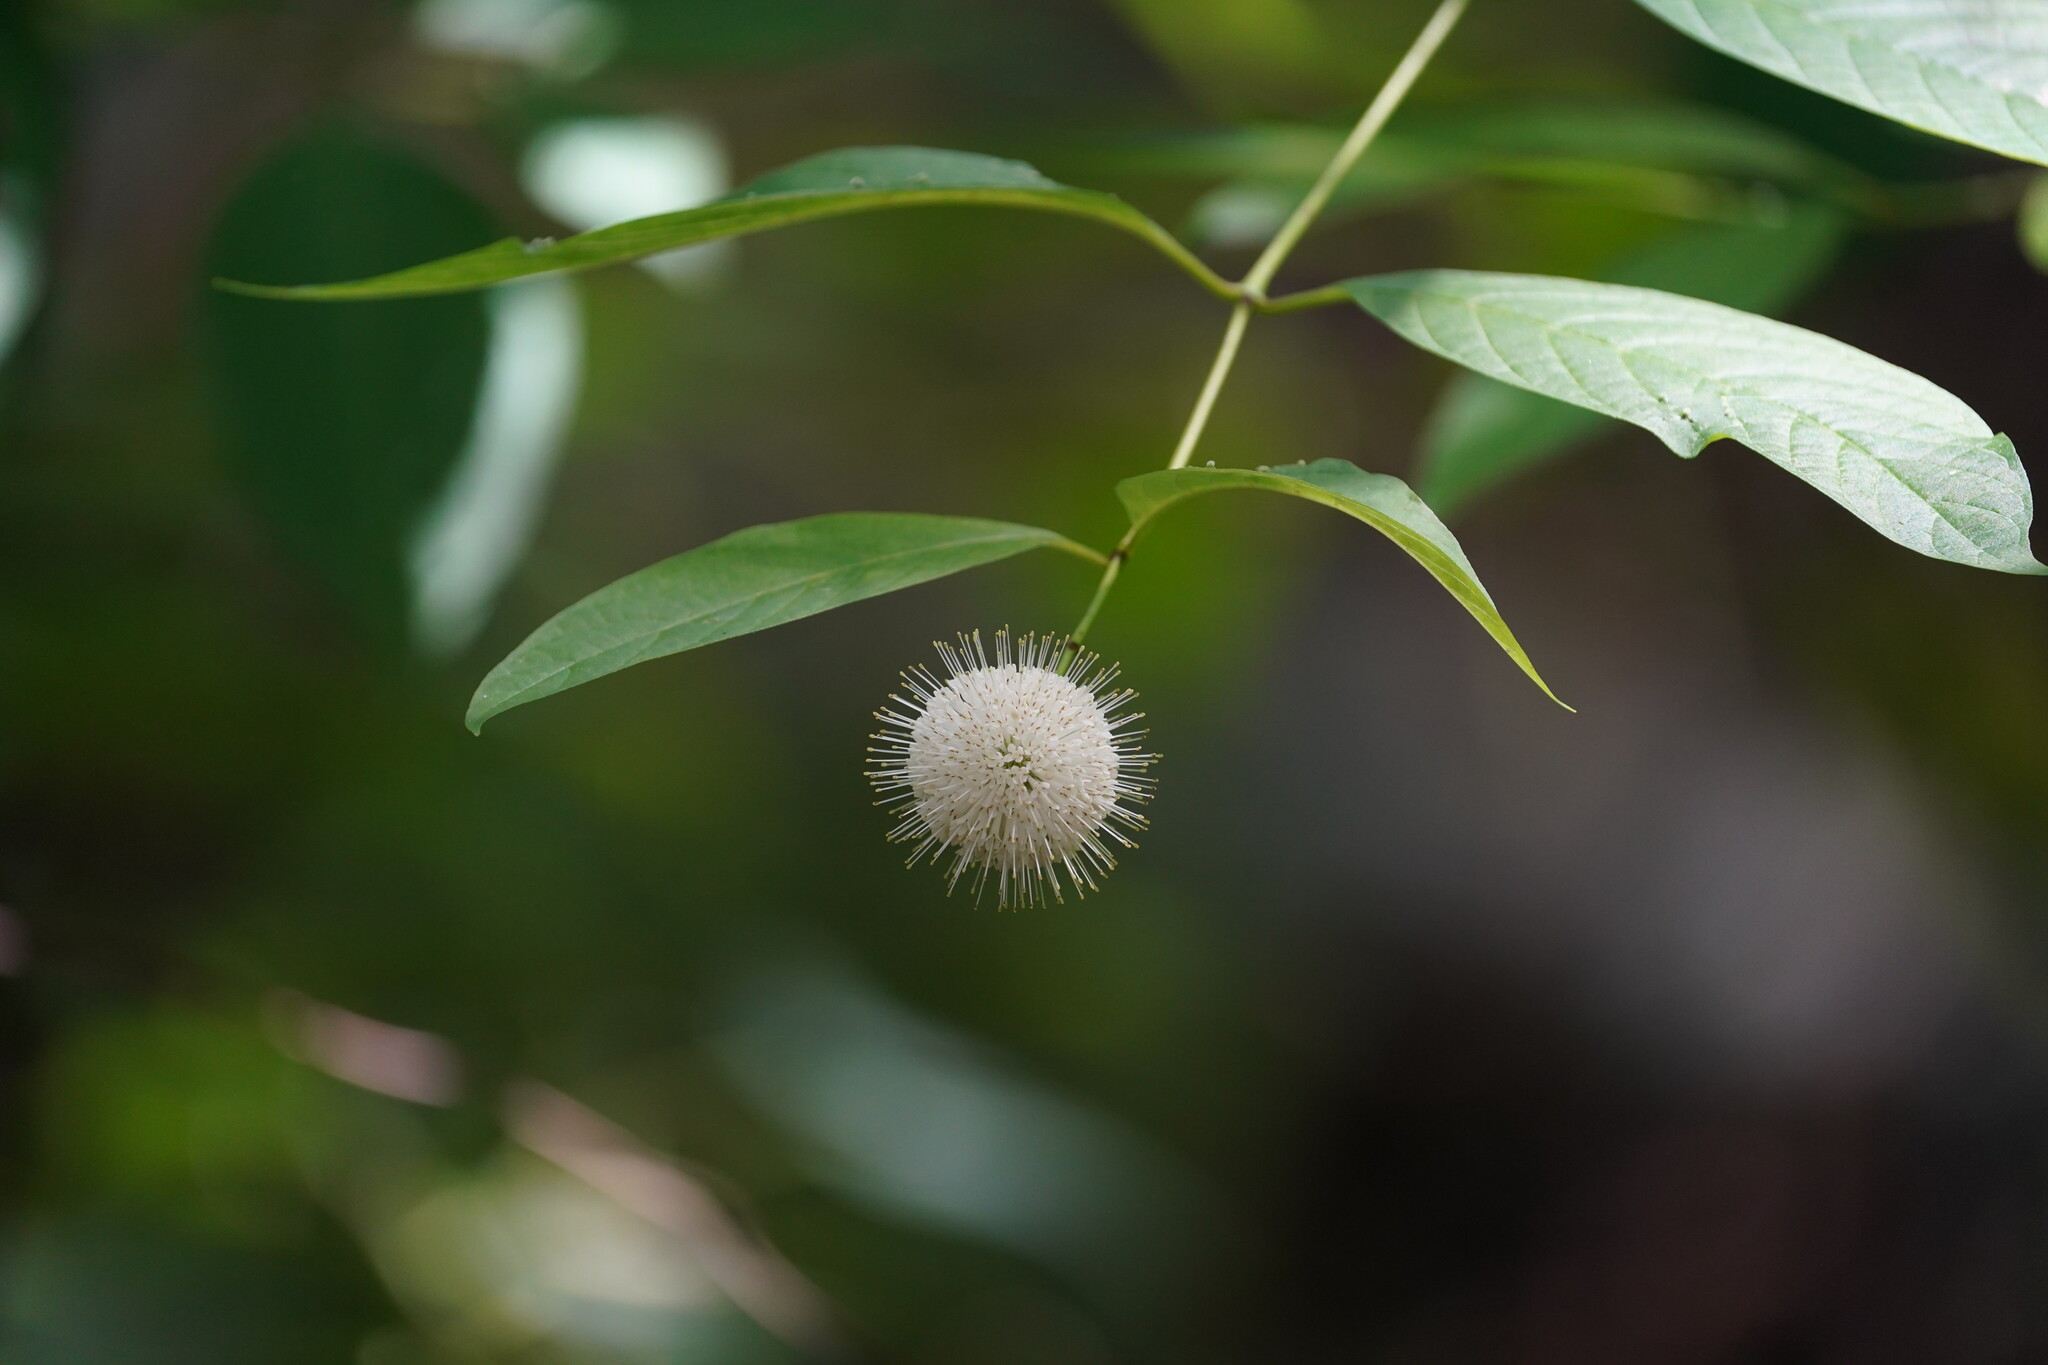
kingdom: Plantae
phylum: Tracheophyta
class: Magnoliopsida
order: Gentianales
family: Rubiaceae
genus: Cephalanthus
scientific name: Cephalanthus occidentalis
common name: Button-willow
